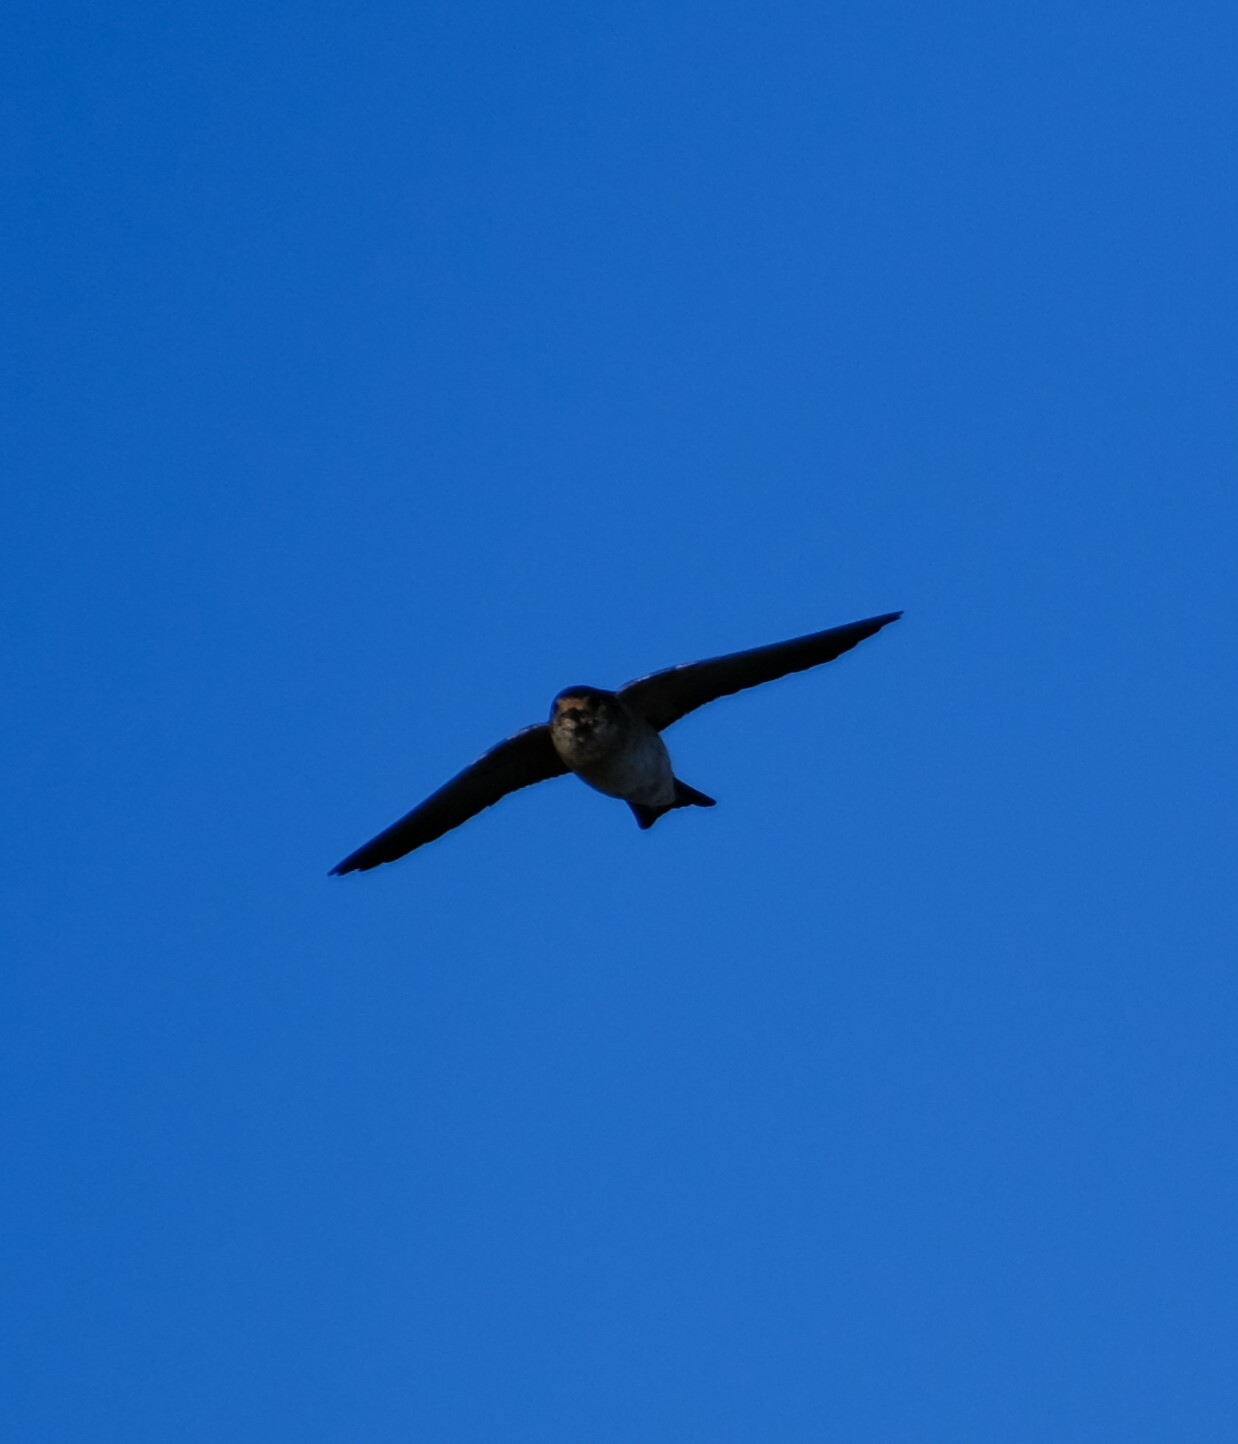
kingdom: Animalia
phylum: Chordata
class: Aves
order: Passeriformes
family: Hirundinidae
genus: Petrochelidon
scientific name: Petrochelidon nigricans
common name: Tree martin
